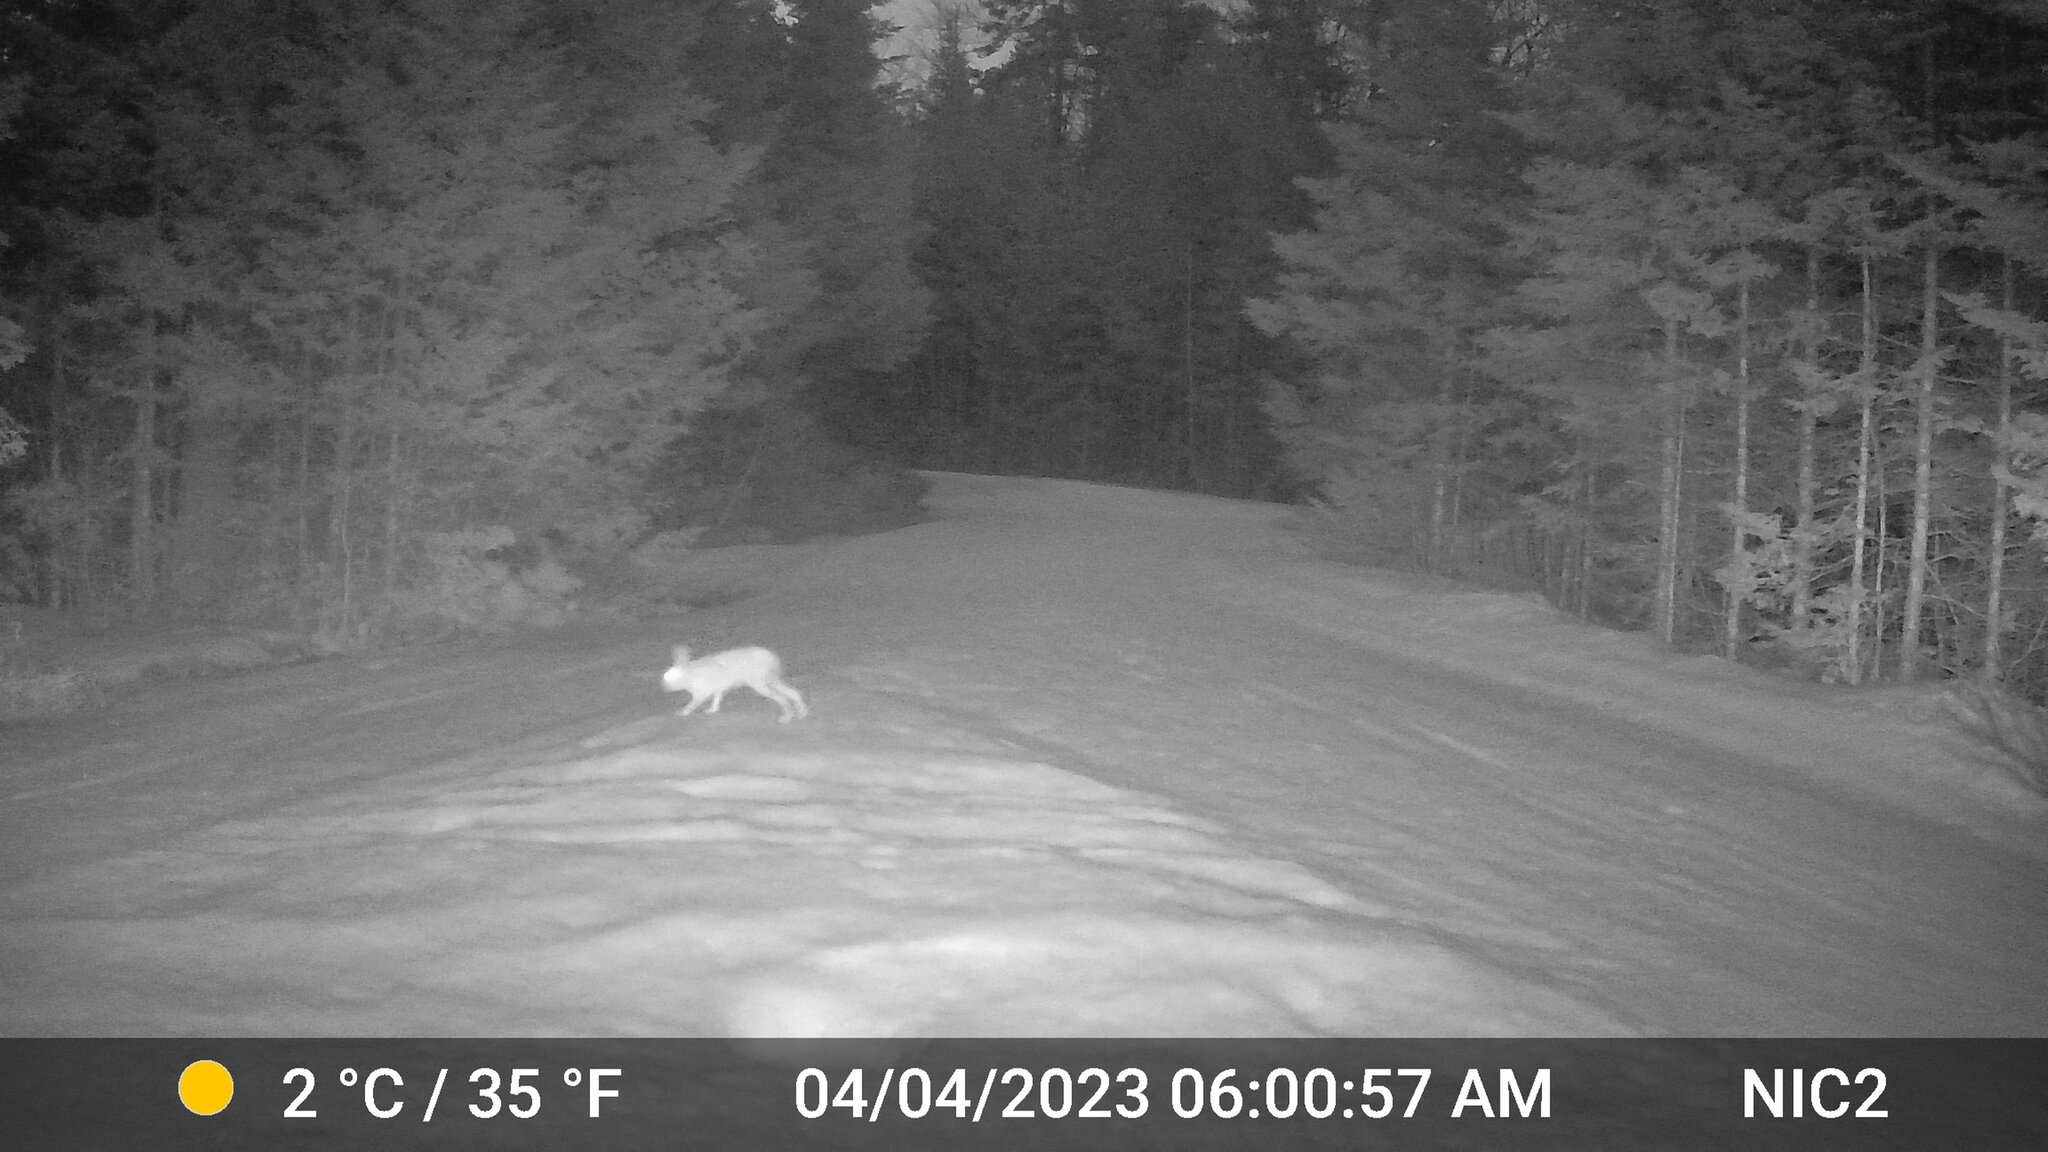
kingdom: Animalia
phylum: Chordata
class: Mammalia
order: Lagomorpha
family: Leporidae
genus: Lepus
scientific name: Lepus americanus
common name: Snowshoe hare
